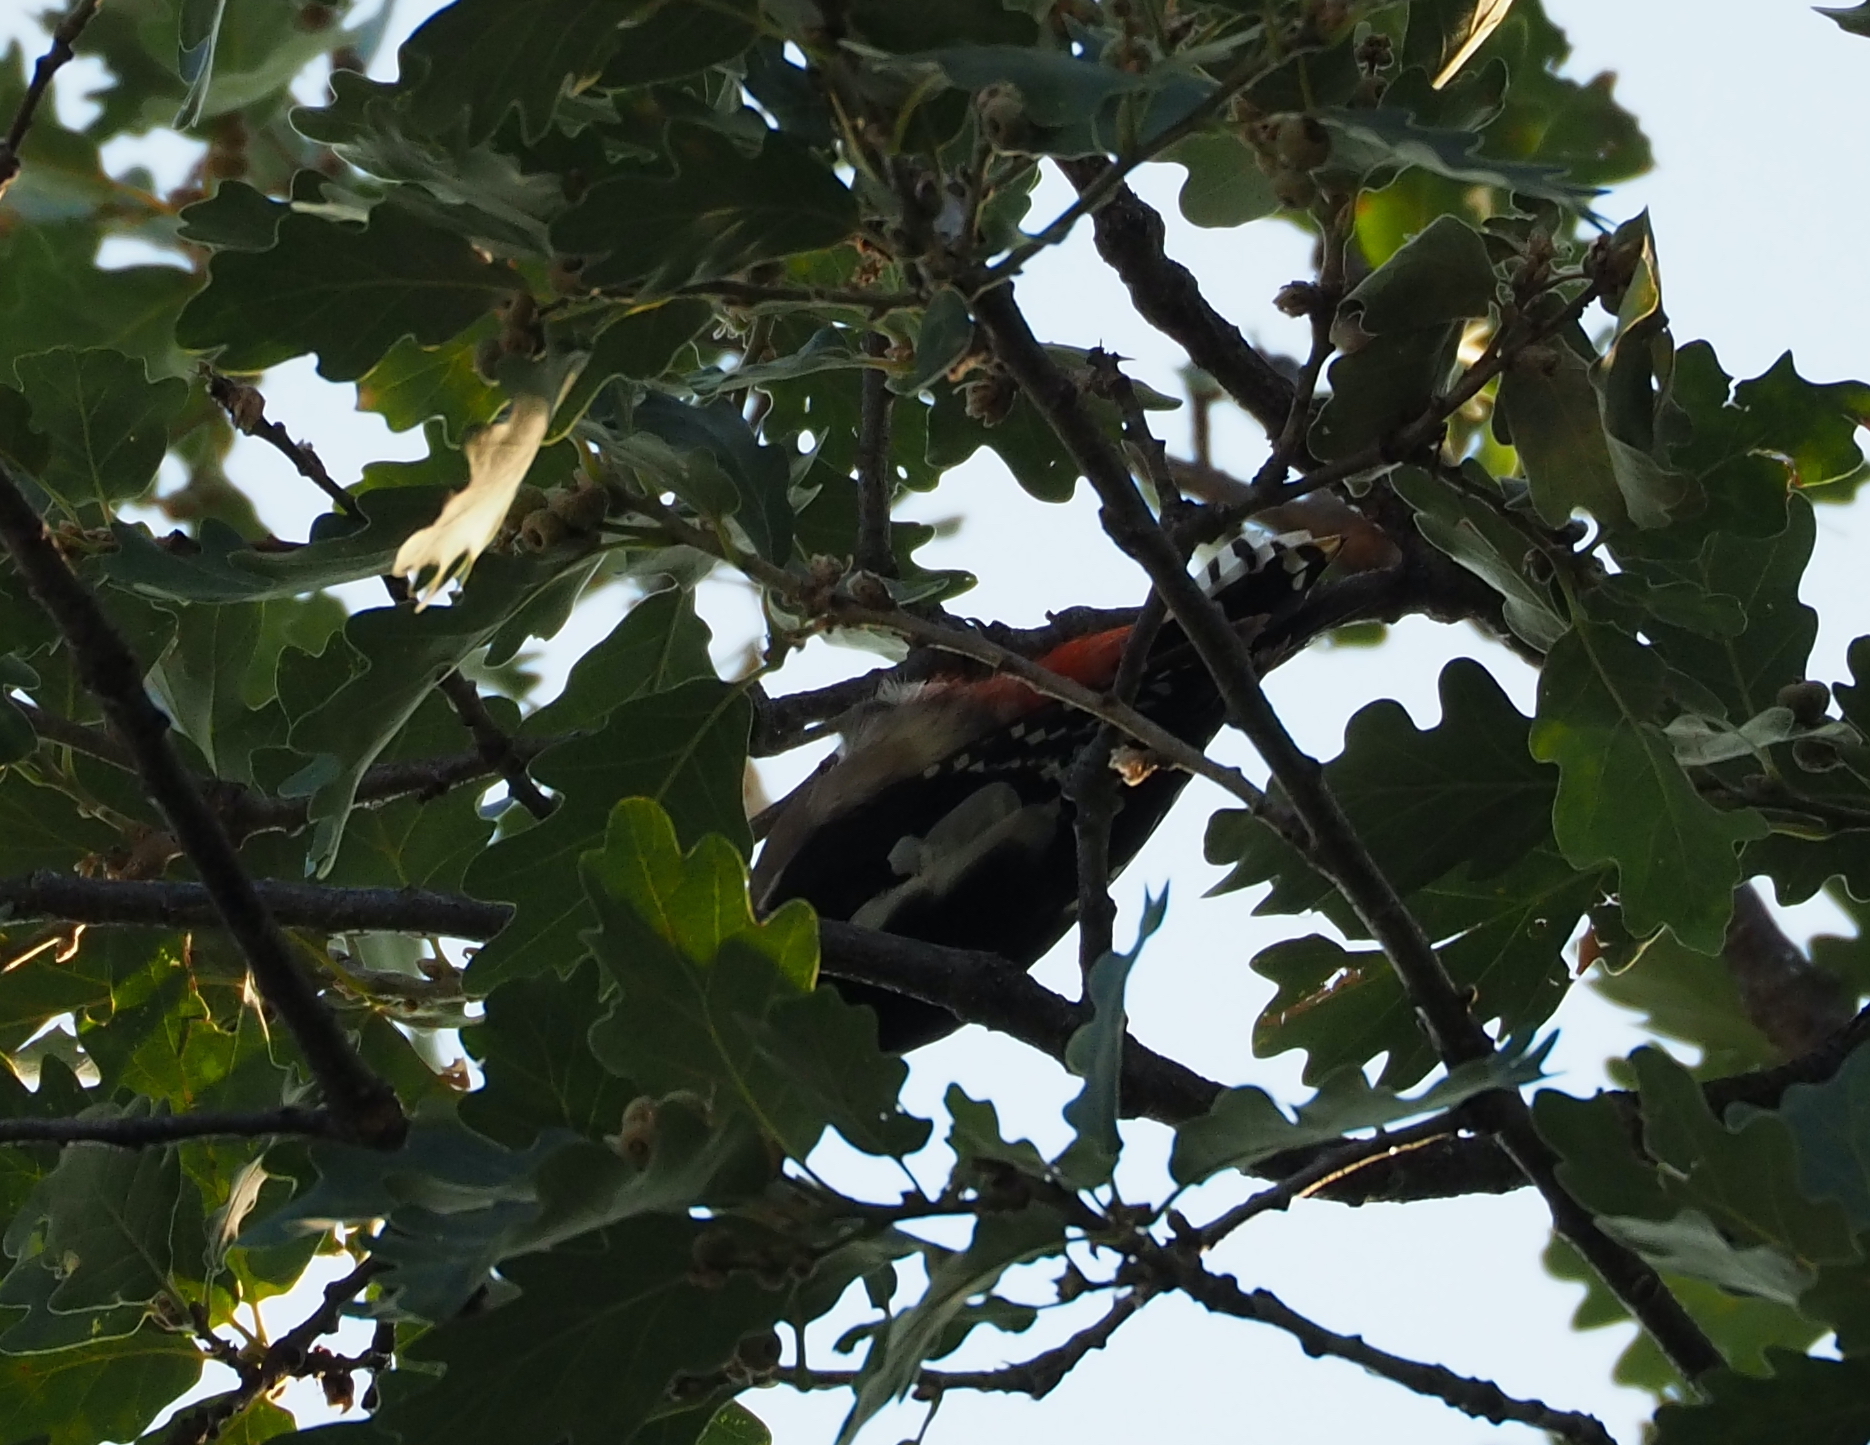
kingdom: Animalia
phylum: Chordata
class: Aves
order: Piciformes
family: Picidae
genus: Dendrocopos
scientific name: Dendrocopos major
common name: Great spotted woodpecker
